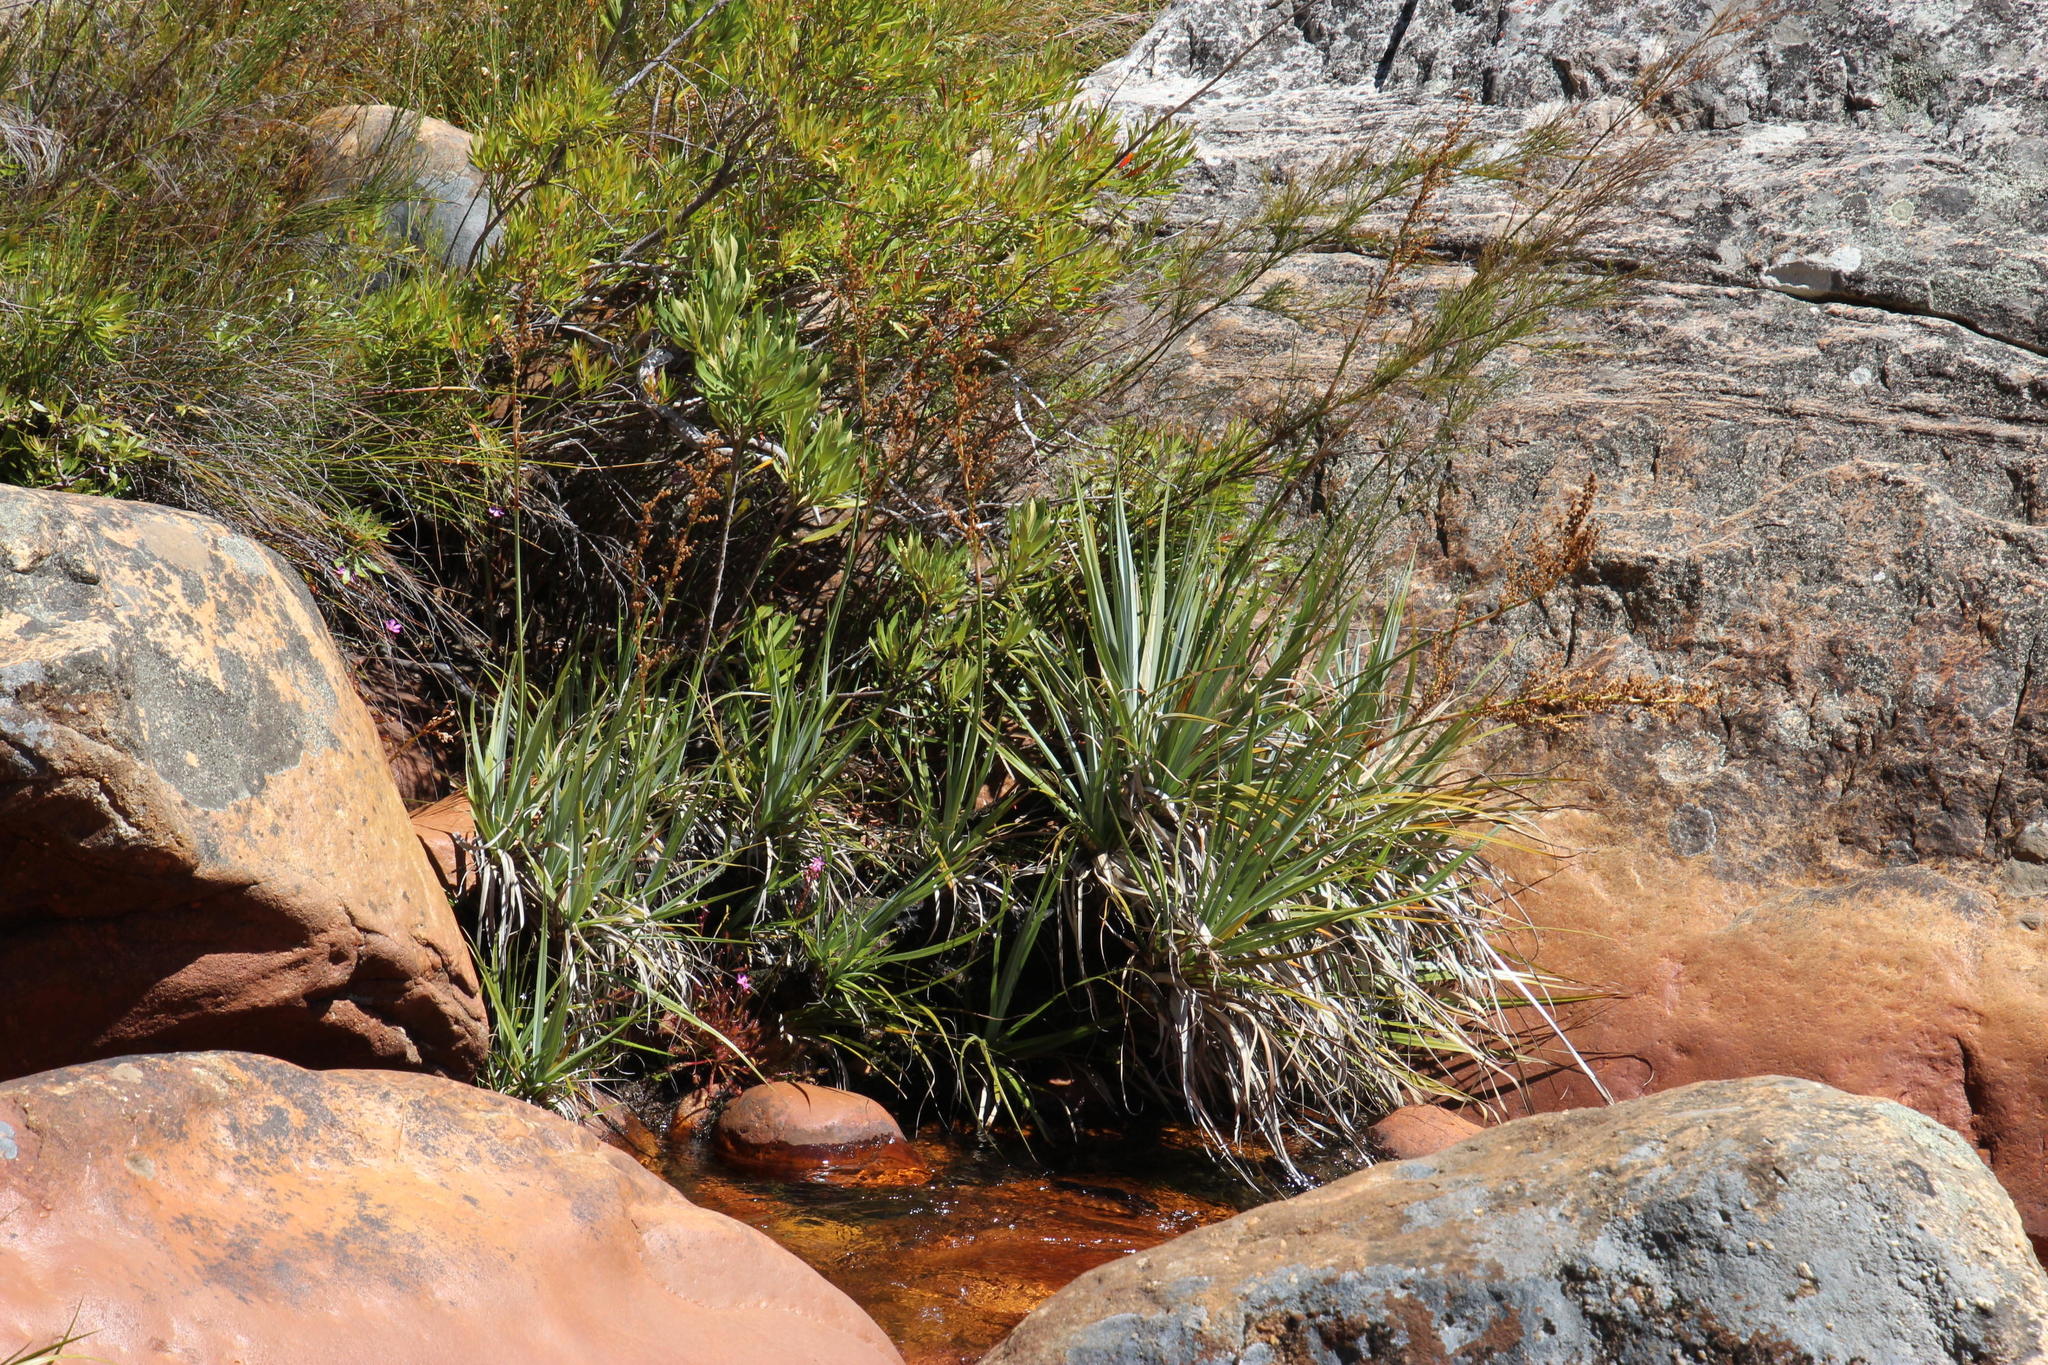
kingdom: Plantae
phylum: Tracheophyta
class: Liliopsida
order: Poales
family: Thurniaceae
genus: Prionium
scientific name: Prionium serratum
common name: Palmiet
